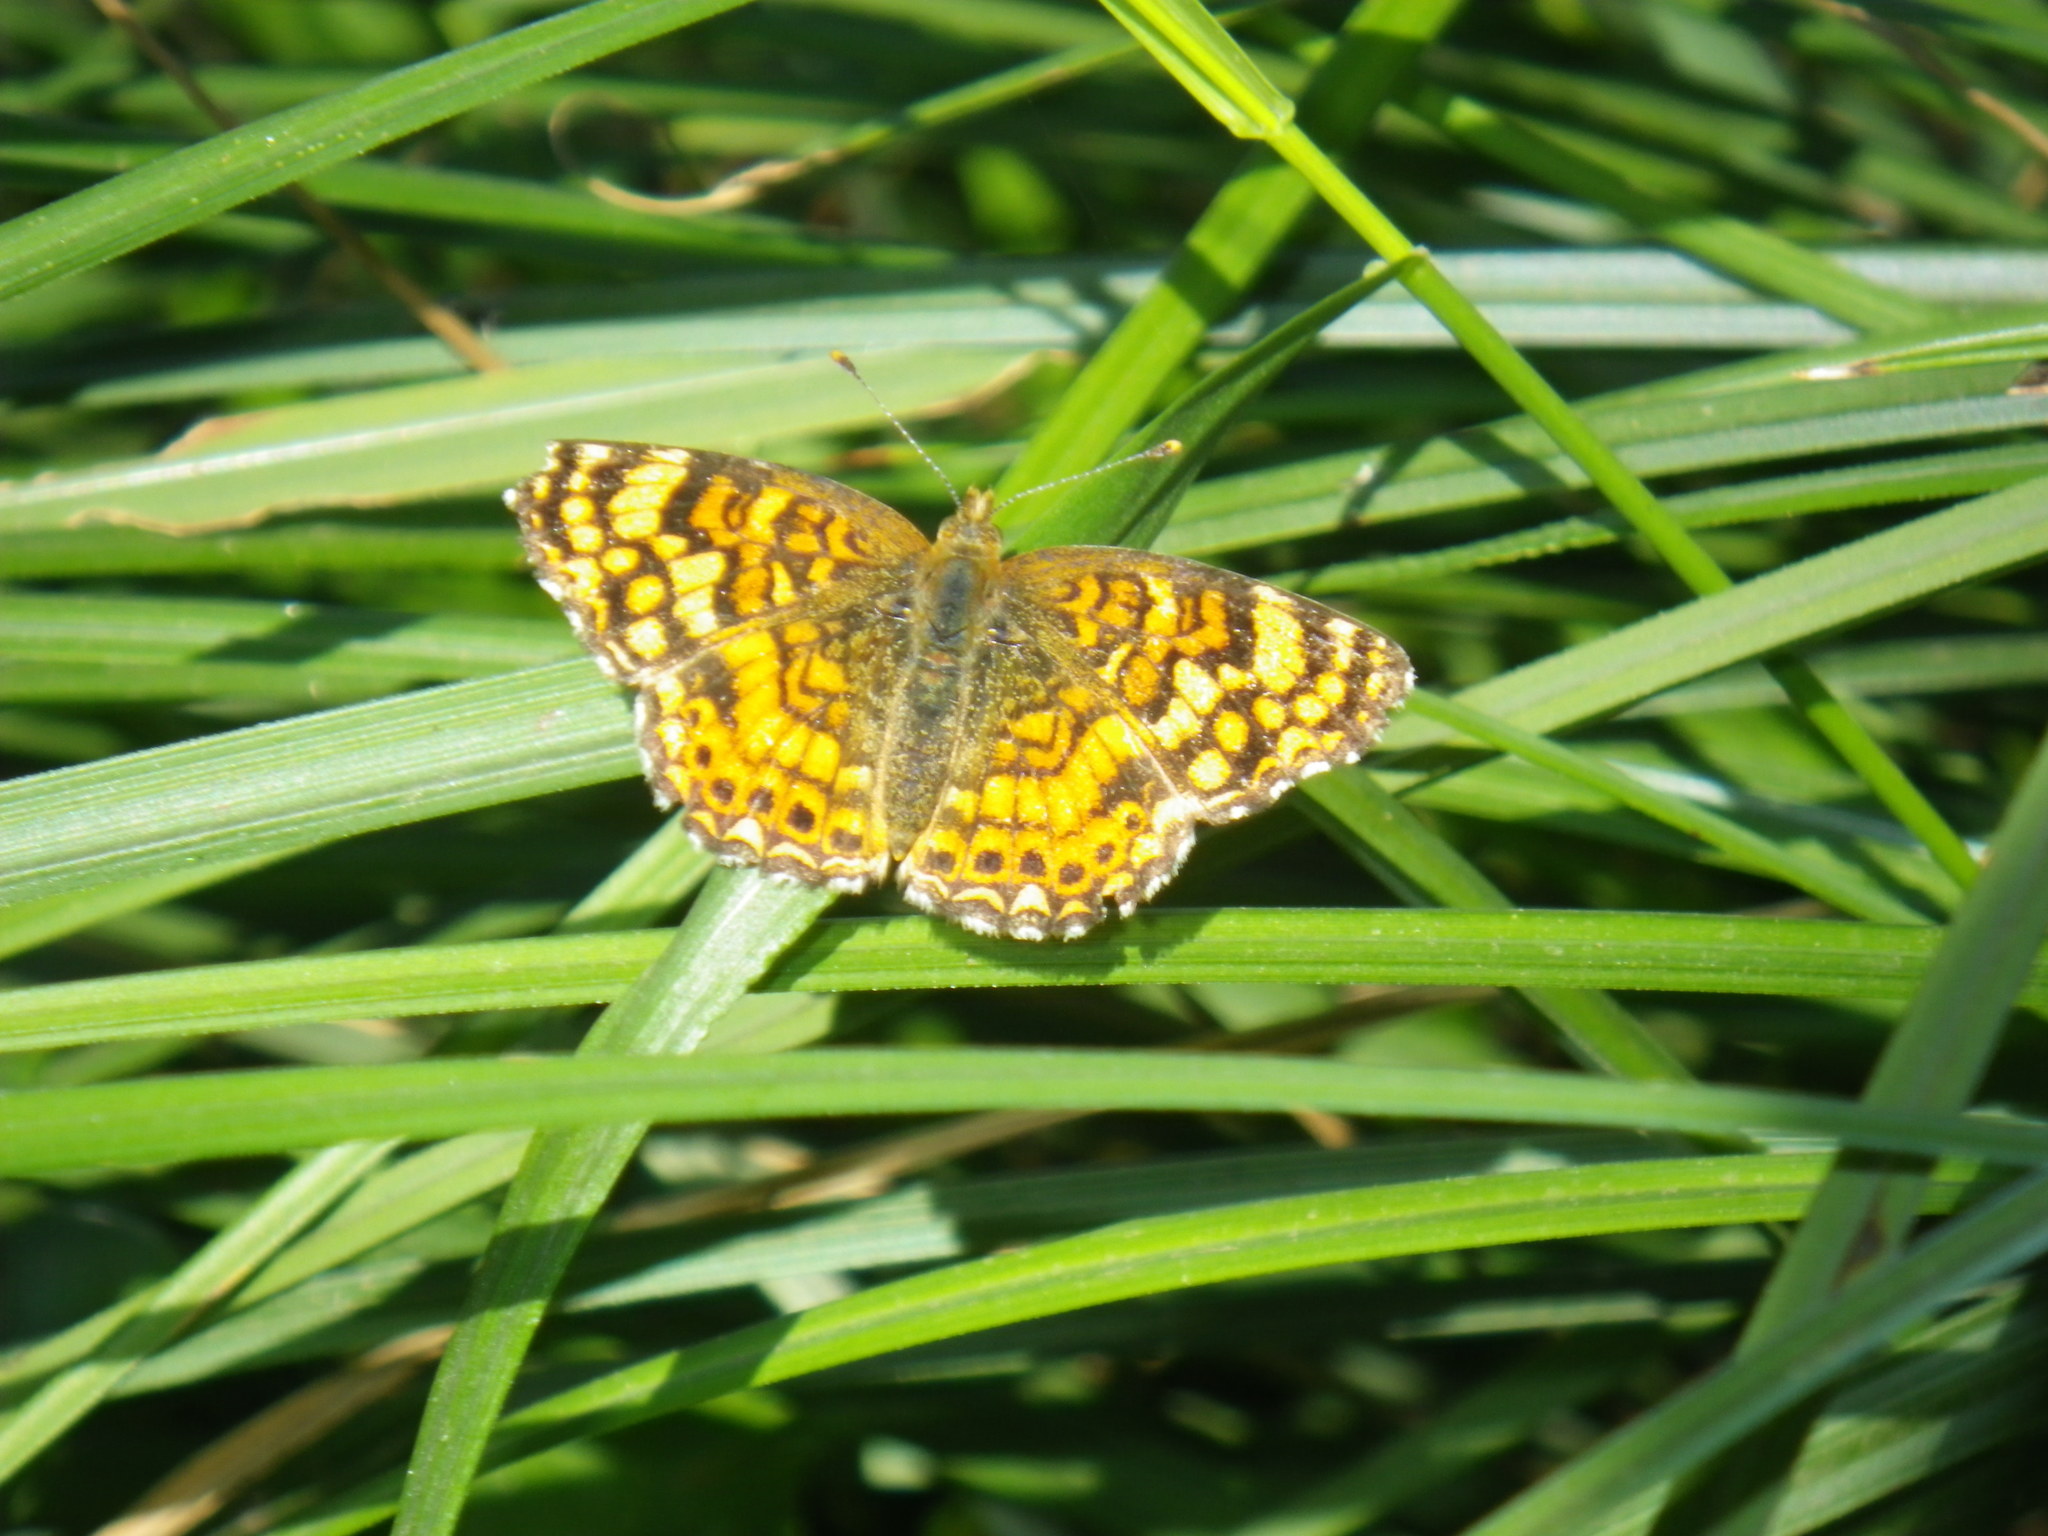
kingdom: Animalia
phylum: Arthropoda
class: Insecta
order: Lepidoptera
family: Nymphalidae
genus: Eresia
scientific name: Eresia aveyrona
